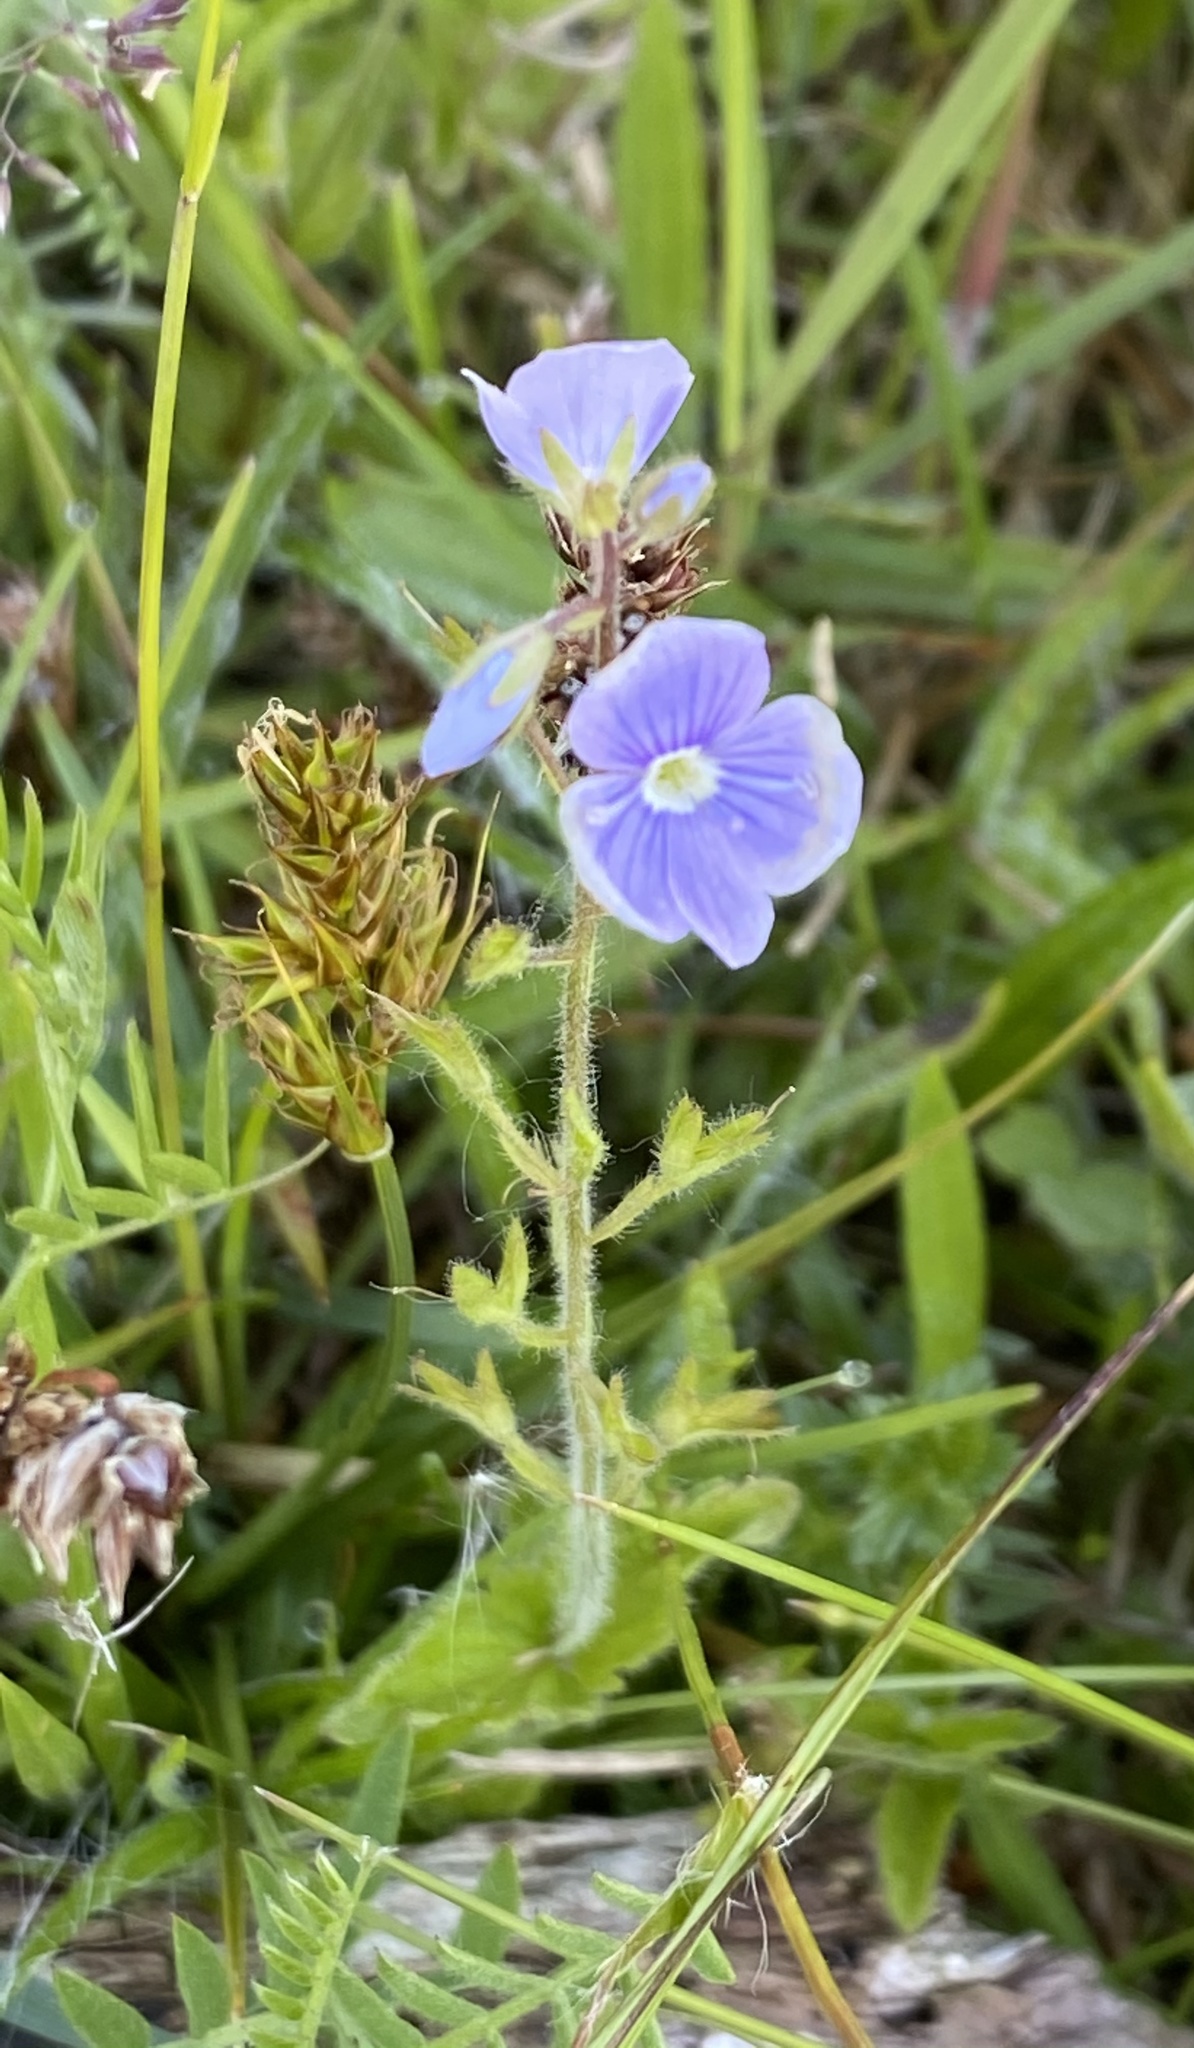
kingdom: Plantae
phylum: Tracheophyta
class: Magnoliopsida
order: Lamiales
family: Plantaginaceae
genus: Veronica
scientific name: Veronica chamaedrys
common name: Germander speedwell
